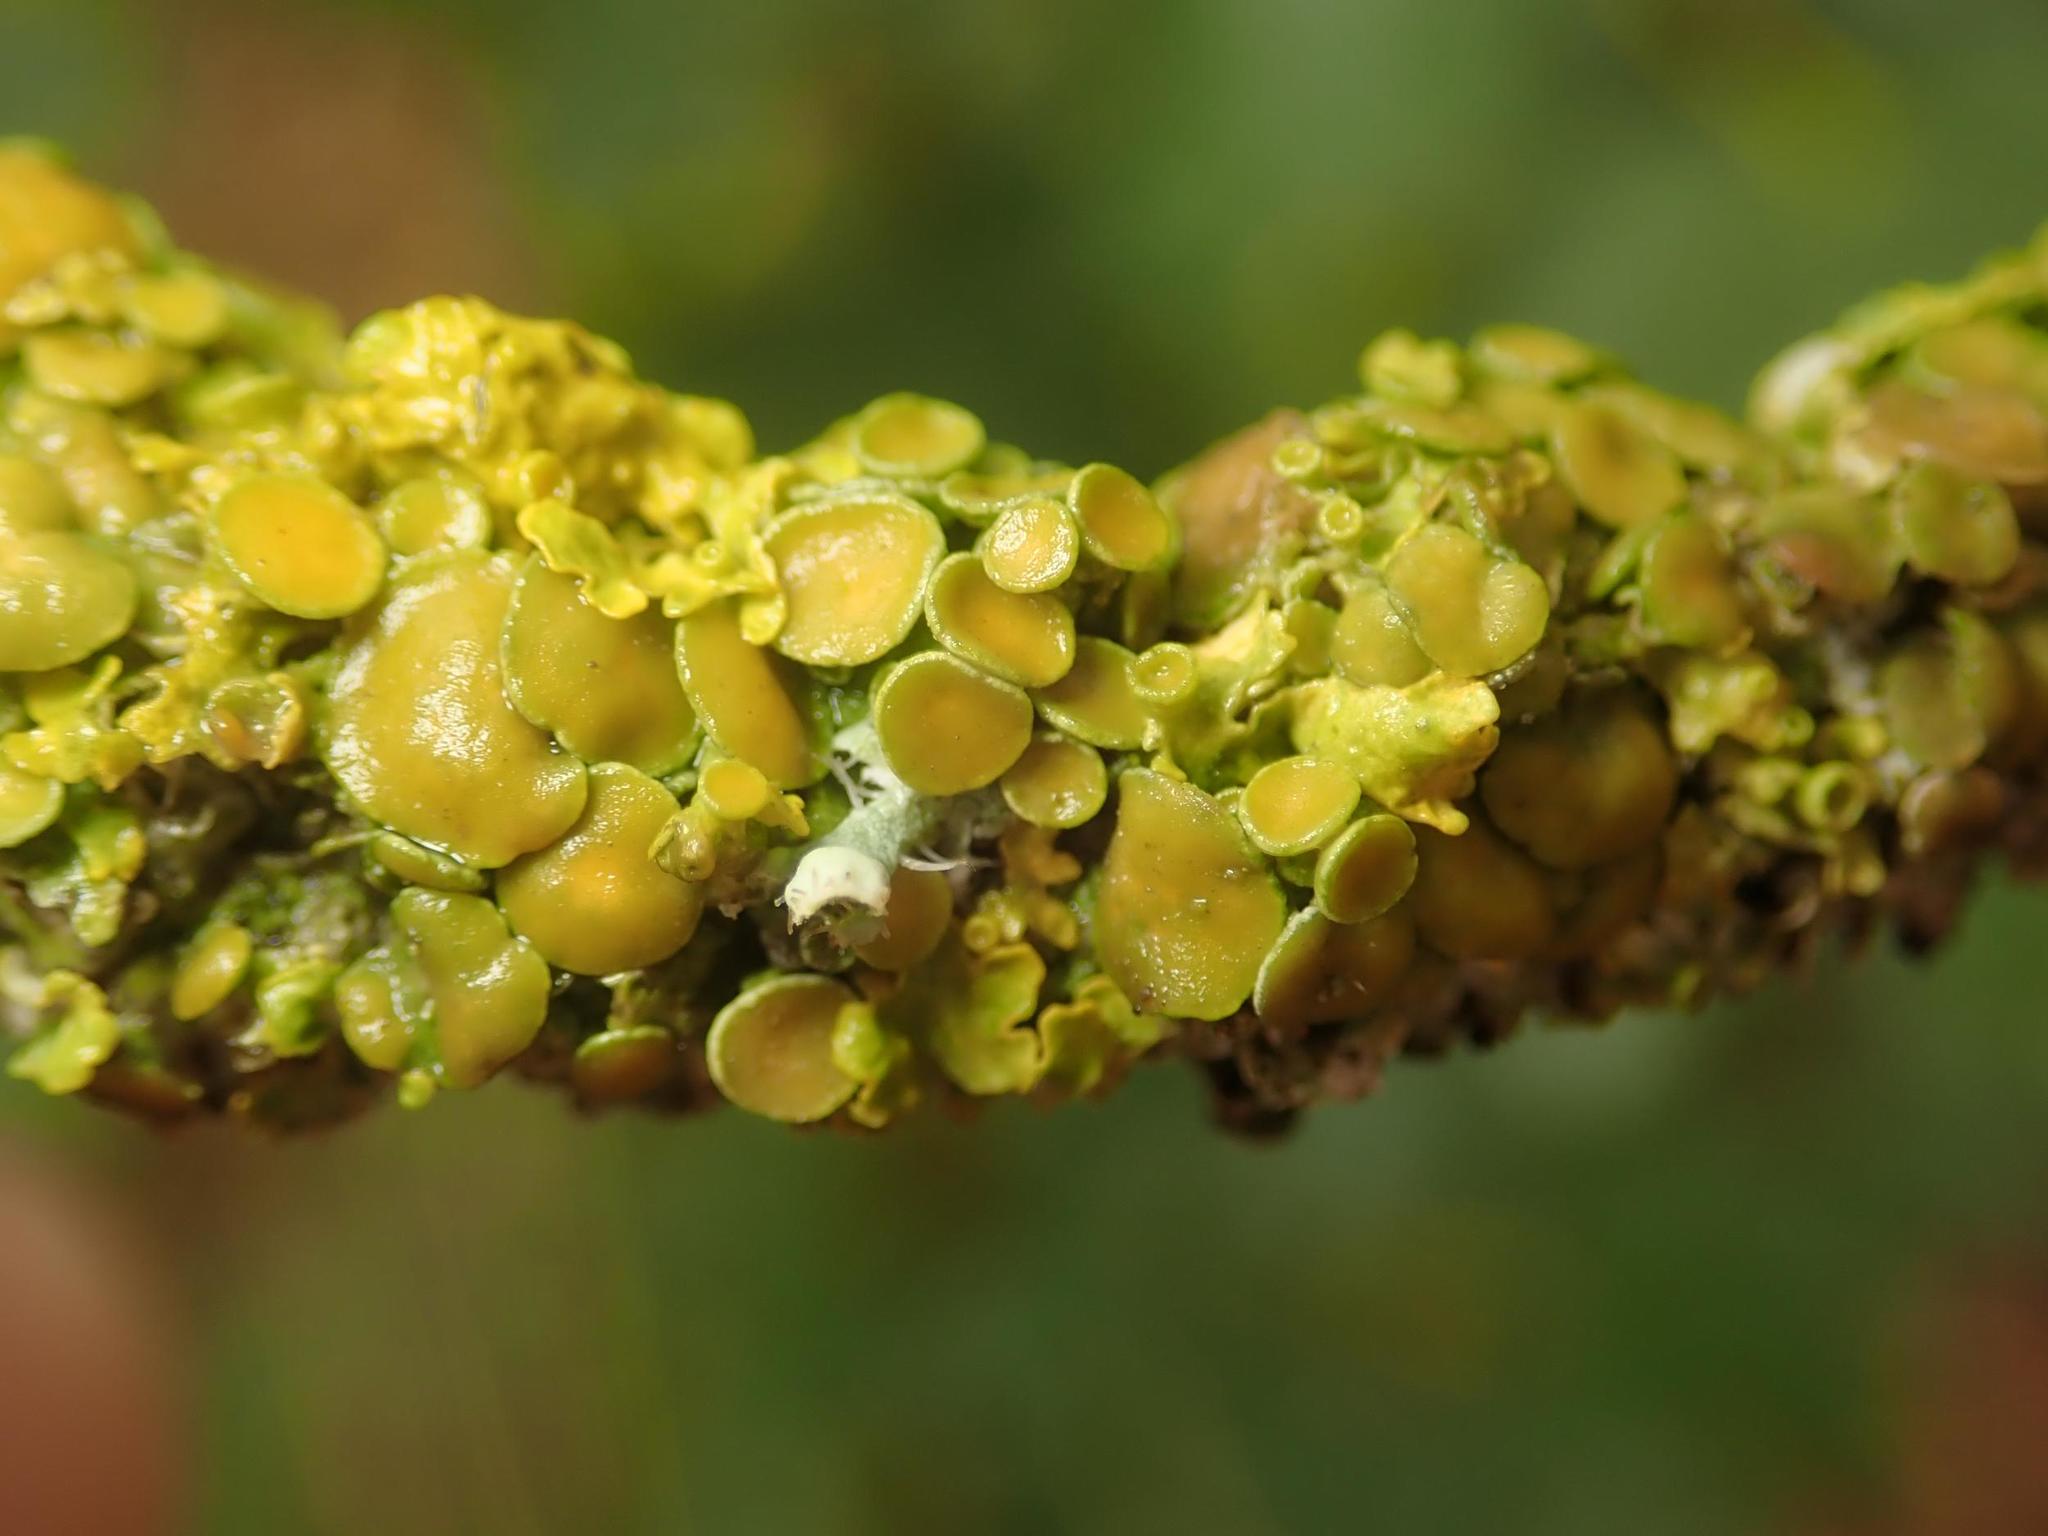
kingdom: Fungi
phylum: Ascomycota
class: Lecanoromycetes
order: Teloschistales
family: Teloschistaceae
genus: Xanthoria
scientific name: Xanthoria parietina
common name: Common orange lichen
